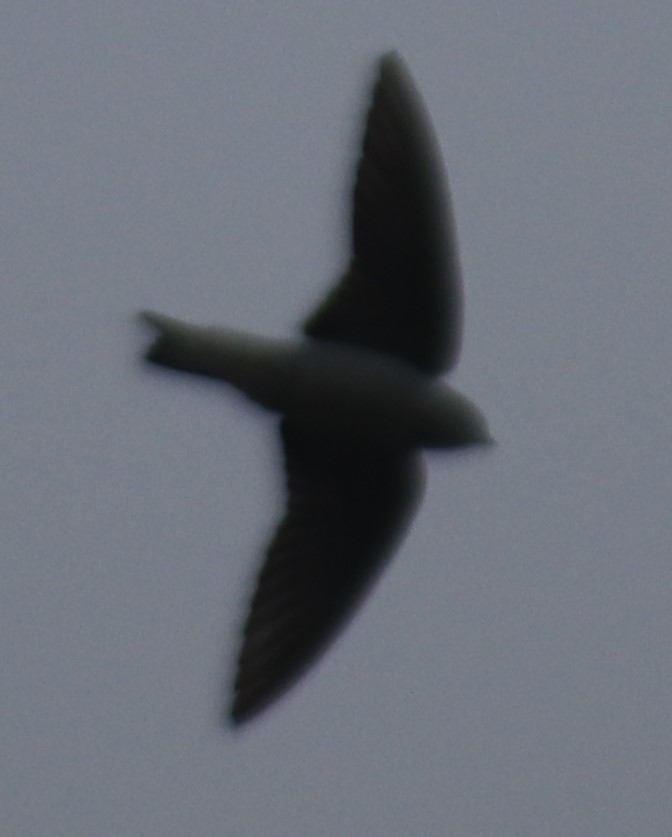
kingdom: Animalia
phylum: Chordata
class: Aves
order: Passeriformes
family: Hirundinidae
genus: Tachycineta
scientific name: Tachycineta bicolor
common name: Tree swallow
